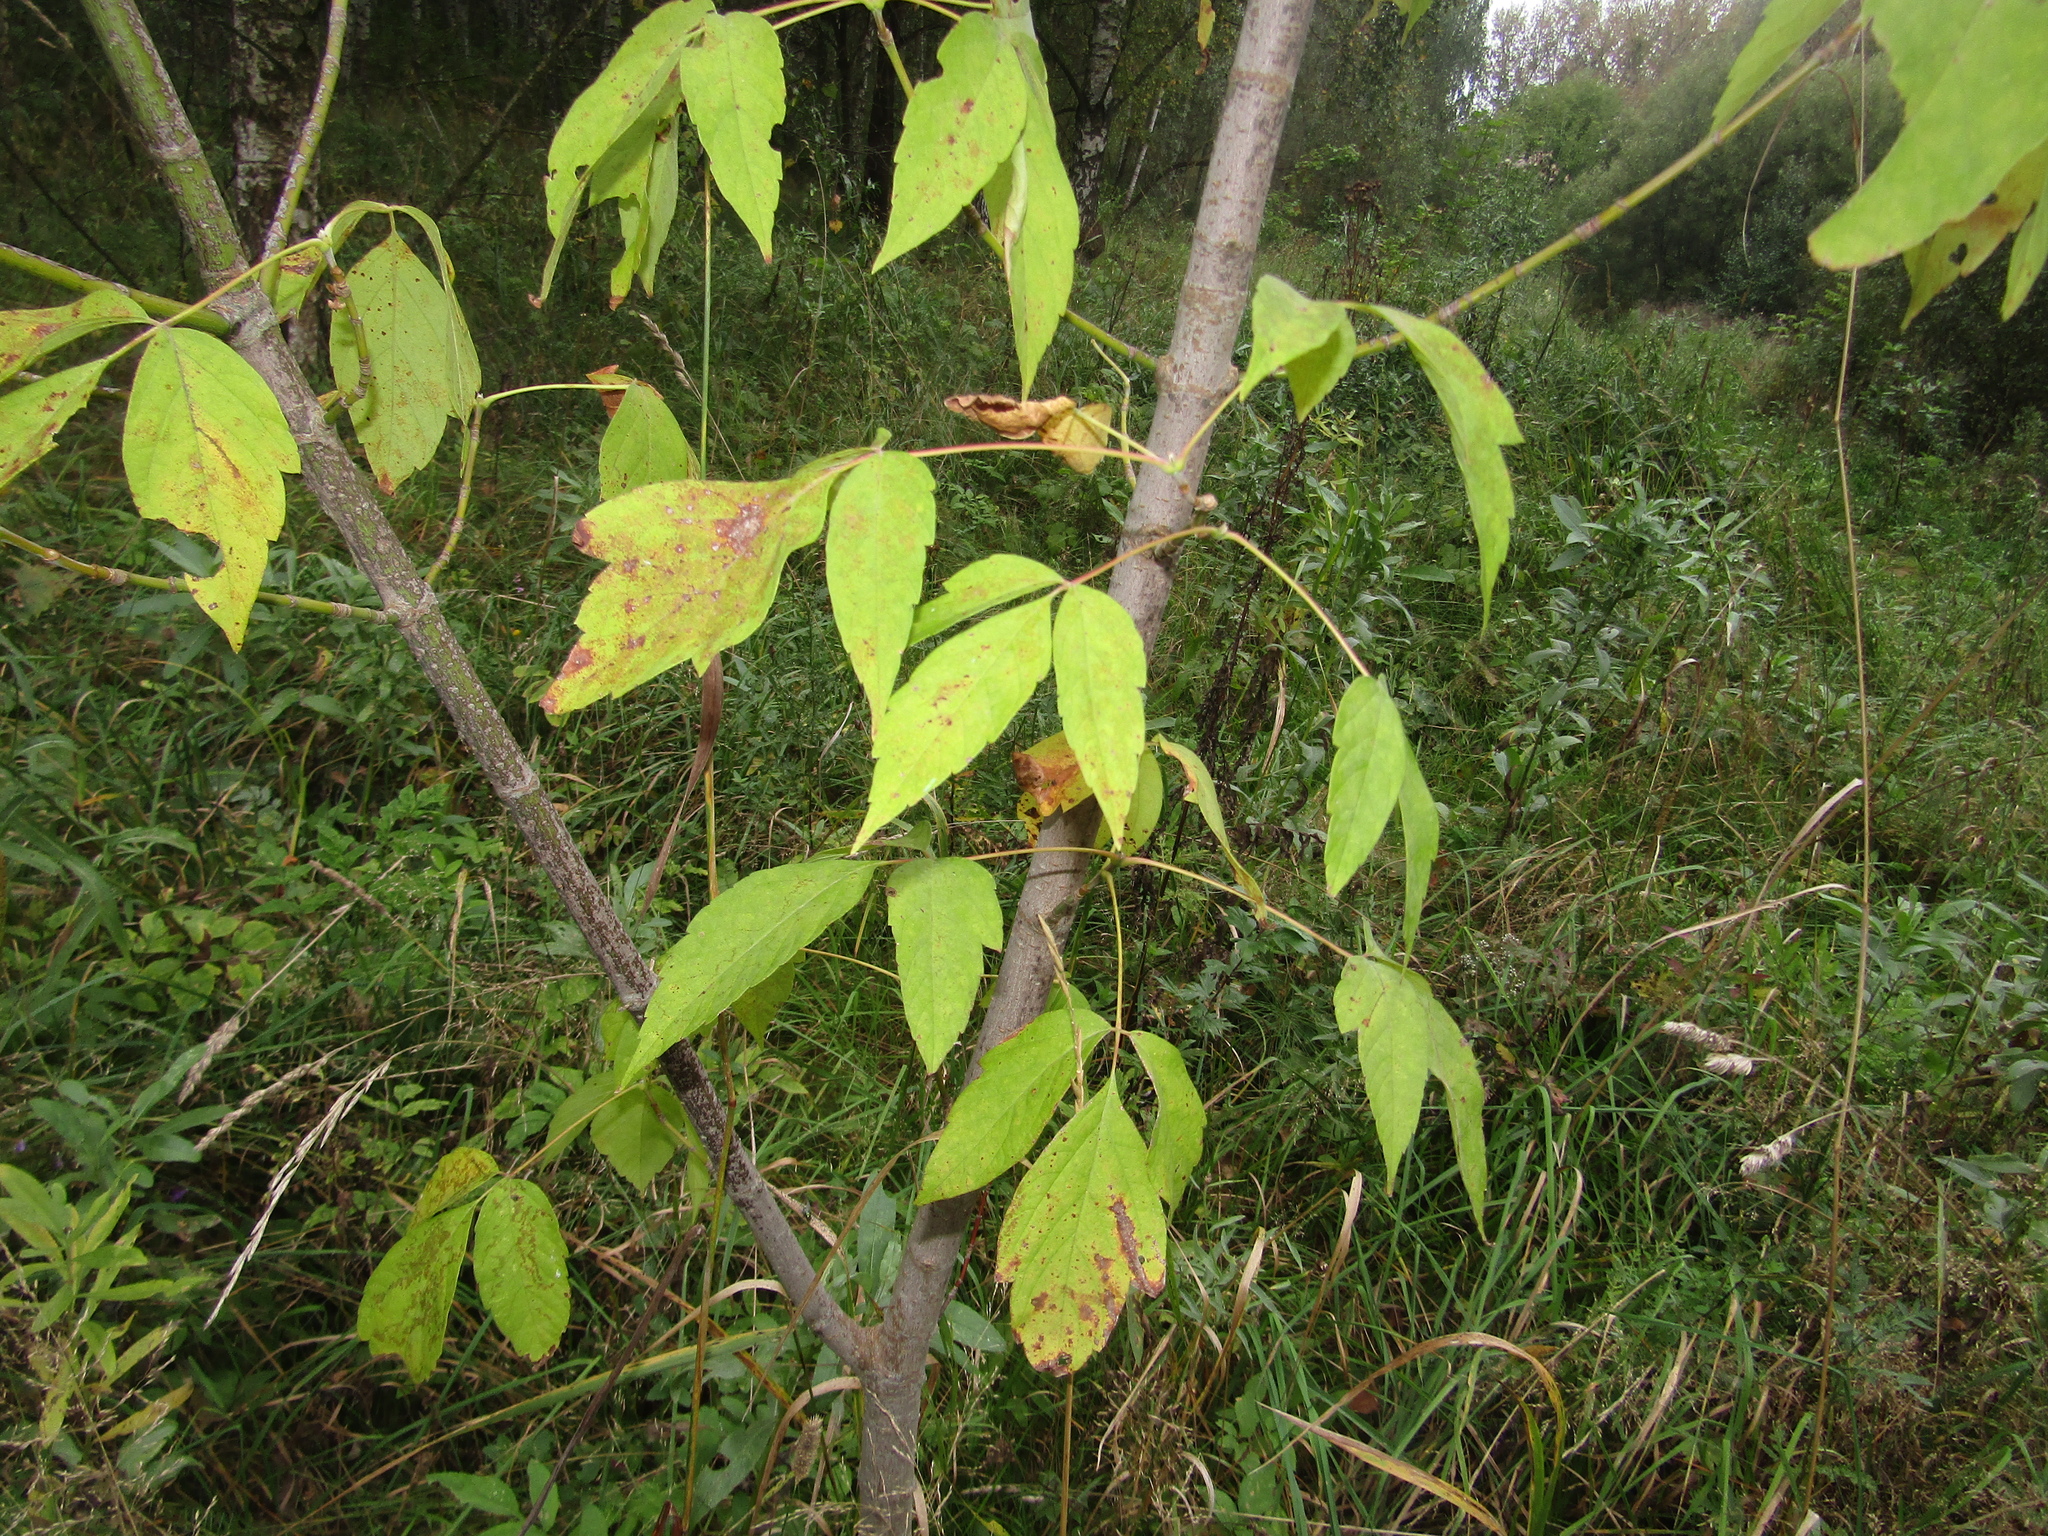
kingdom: Plantae
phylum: Tracheophyta
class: Magnoliopsida
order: Sapindales
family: Sapindaceae
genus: Acer
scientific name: Acer negundo
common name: Ashleaf maple
